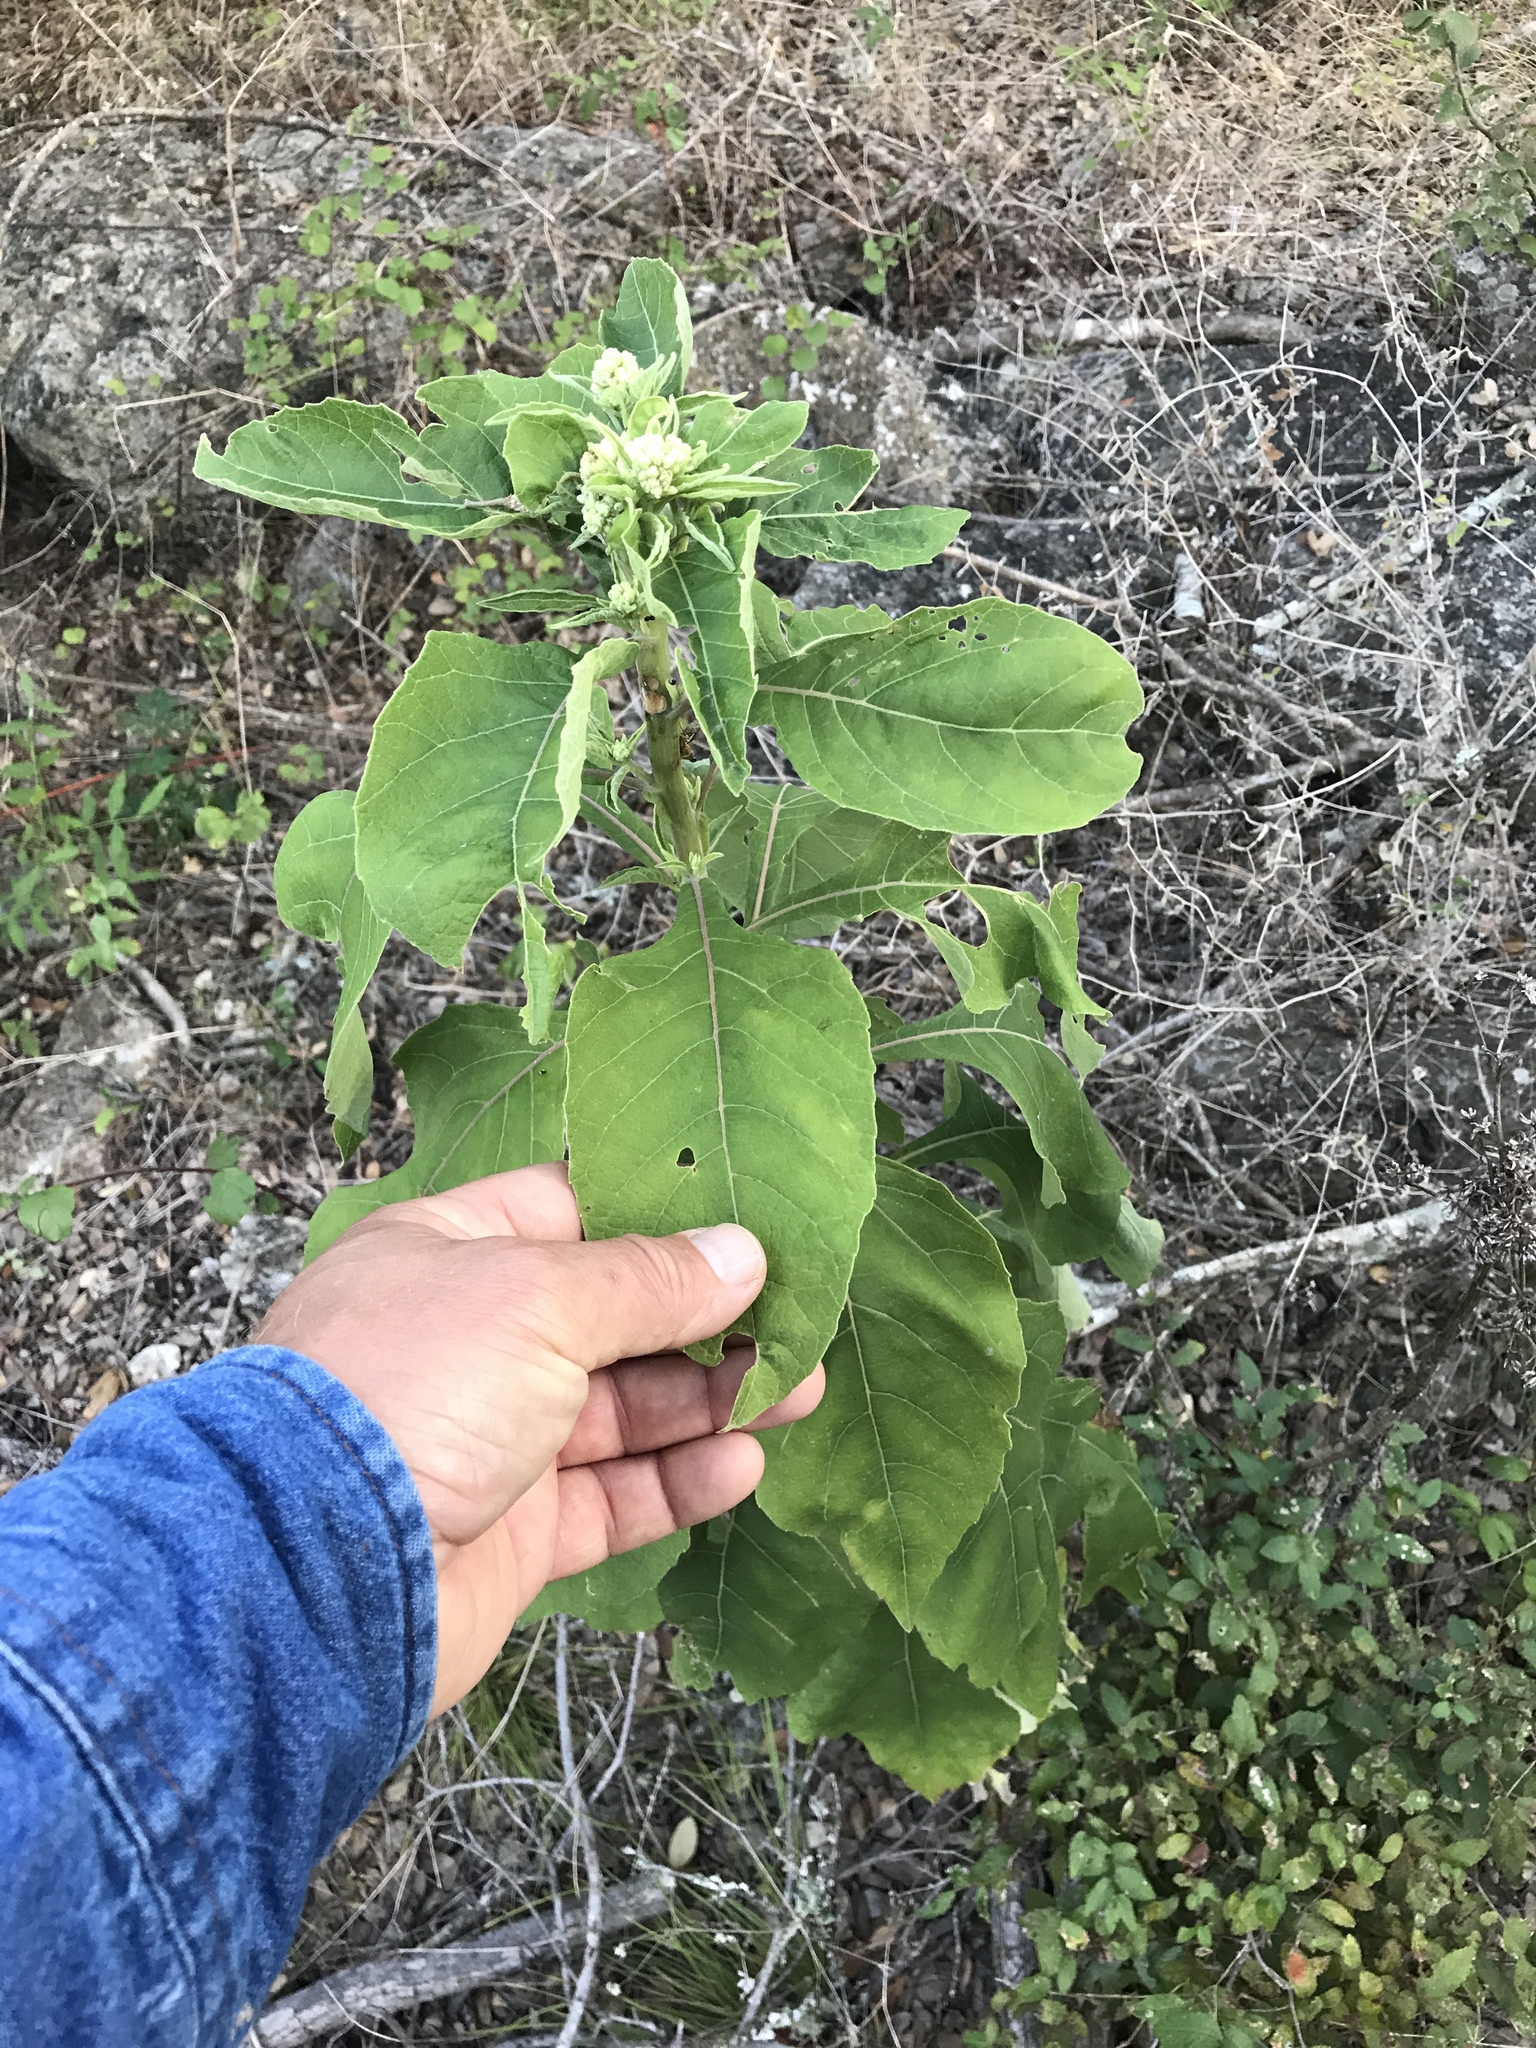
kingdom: Plantae
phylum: Tracheophyta
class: Magnoliopsida
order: Asterales
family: Asteraceae
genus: Verbesina
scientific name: Verbesina virginica
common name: Frostweed
